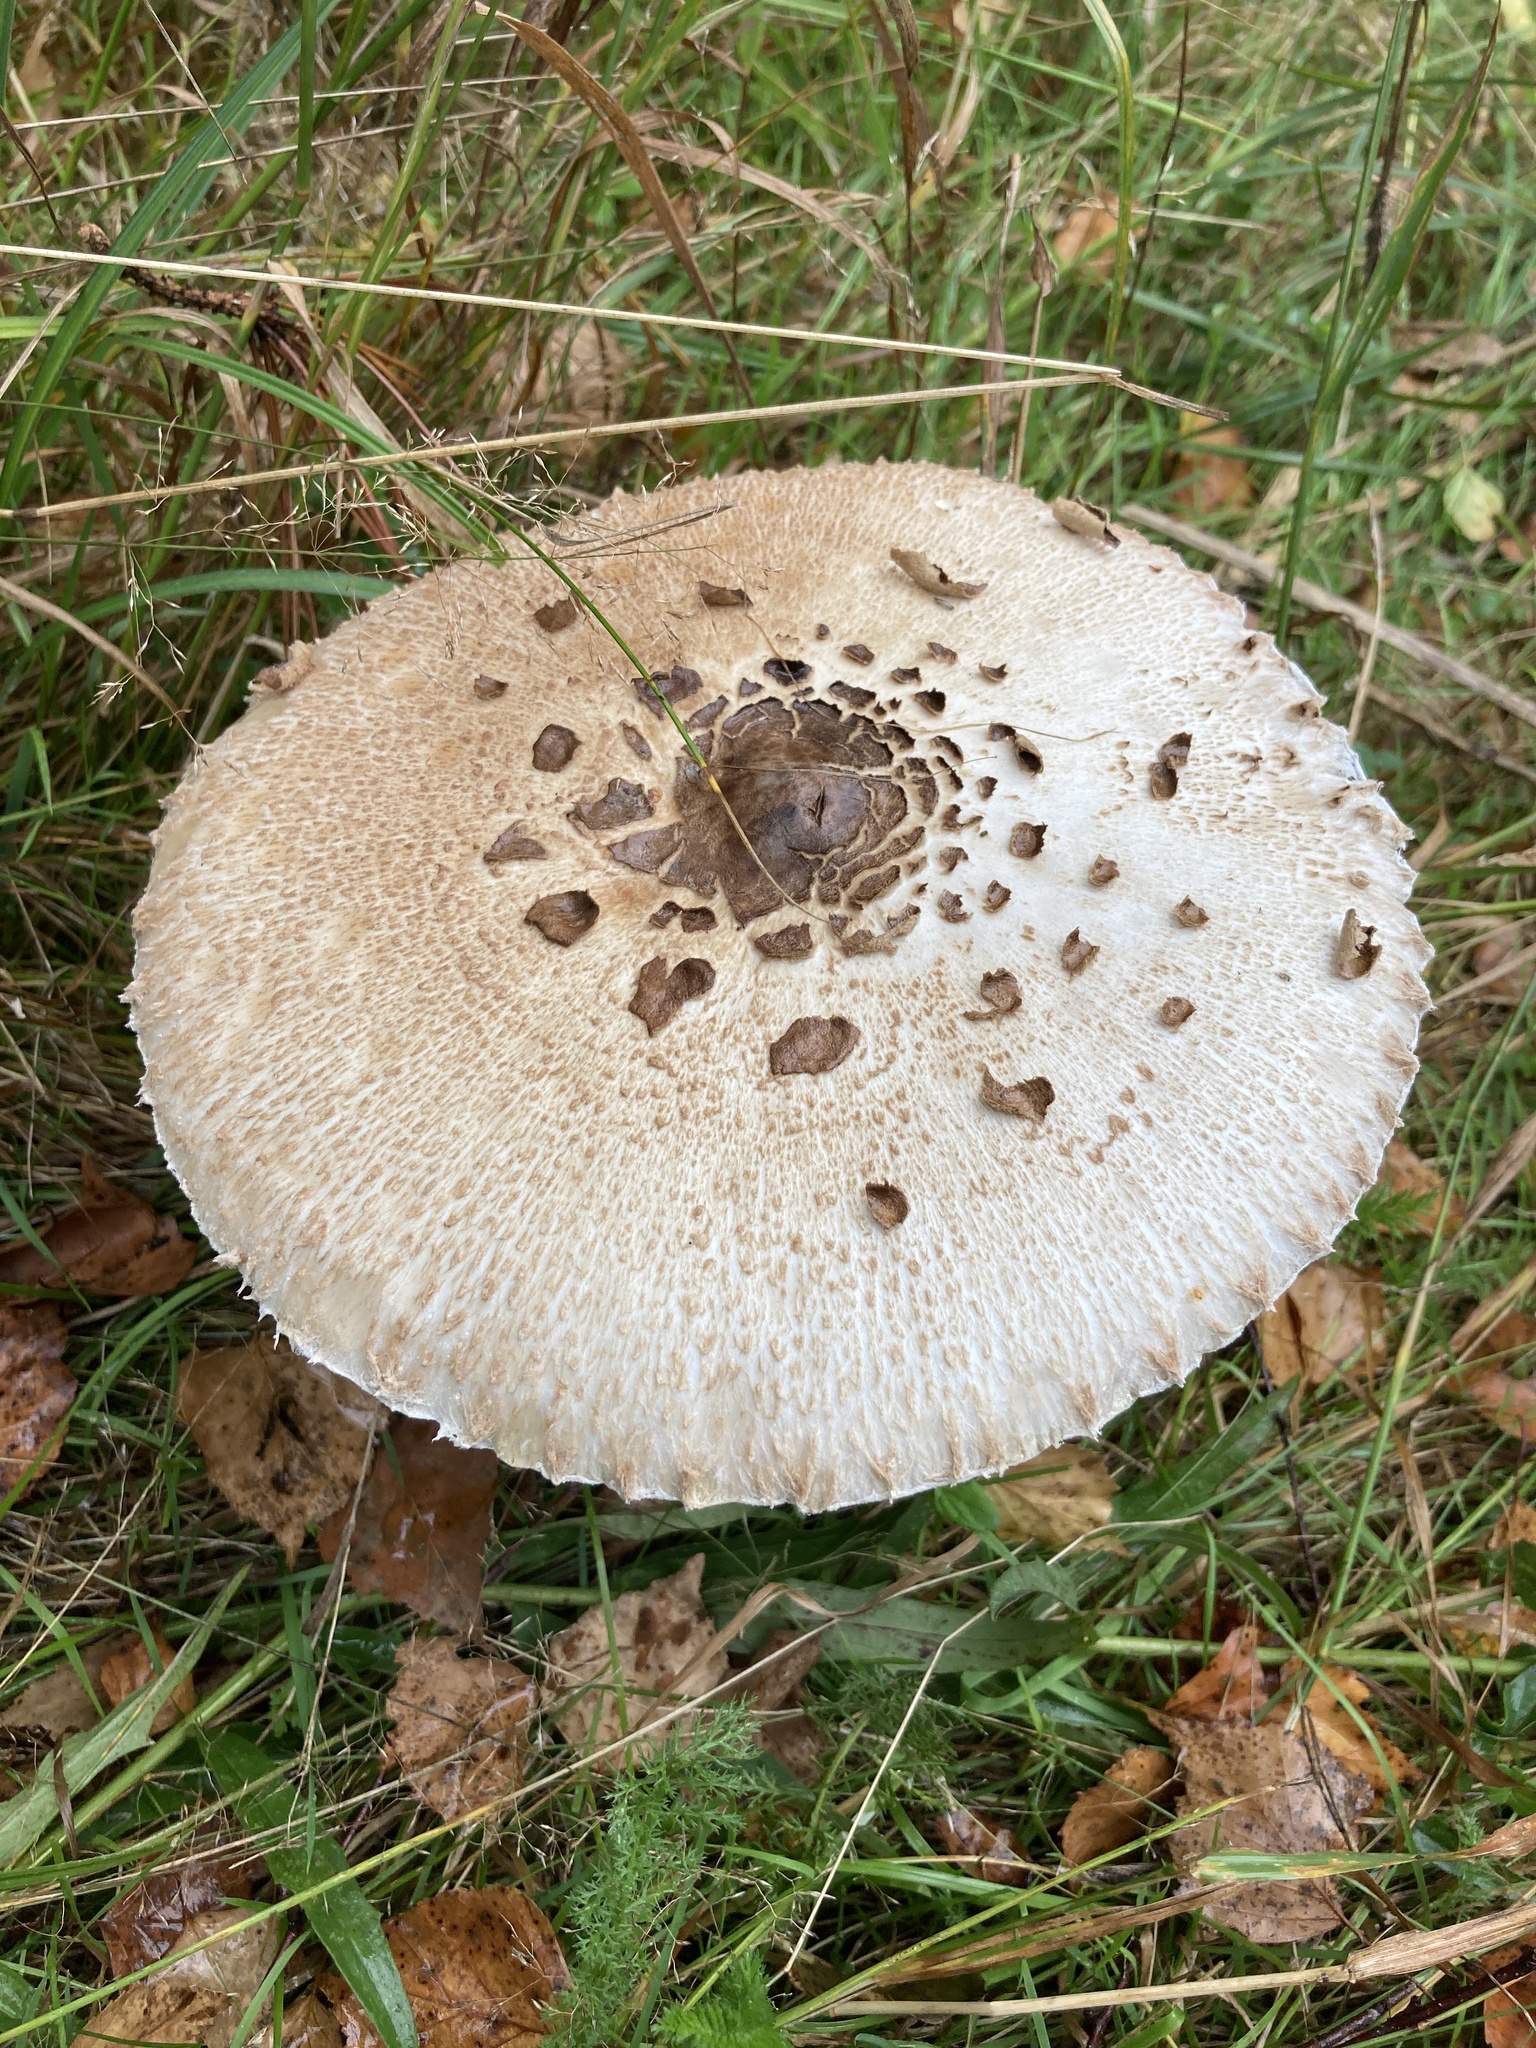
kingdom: Fungi
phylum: Basidiomycota
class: Agaricomycetes
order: Agaricales
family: Agaricaceae
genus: Chlorophyllum
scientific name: Chlorophyllum rhacodes
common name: Shaggy parasol
